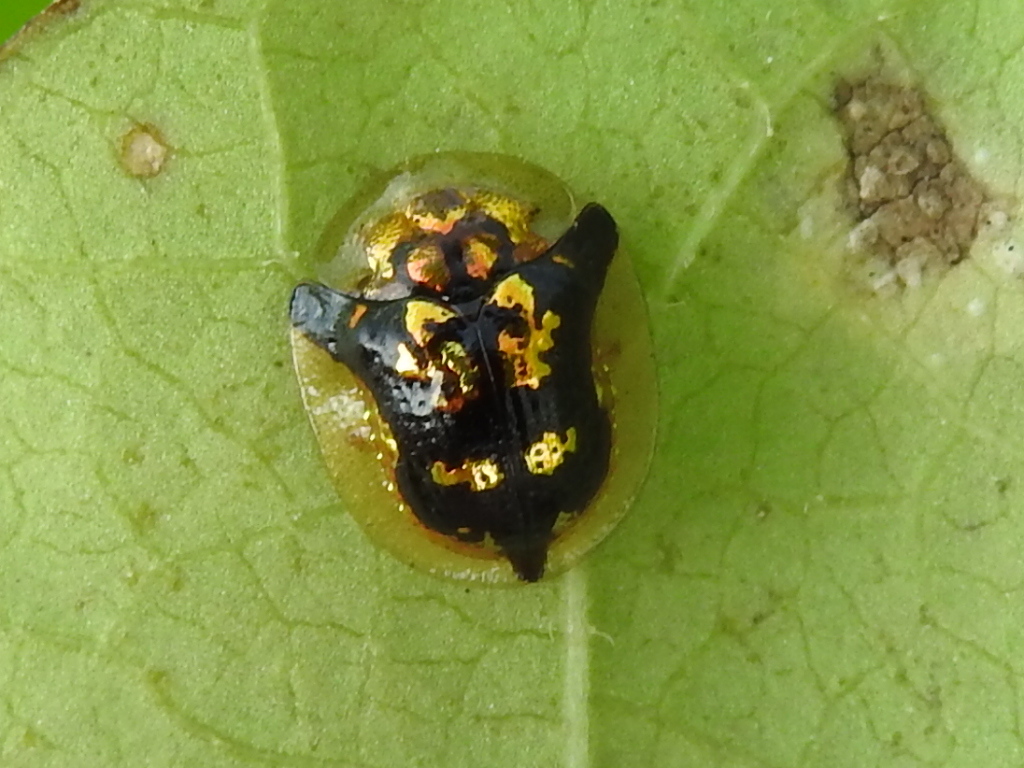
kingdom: Animalia
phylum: Arthropoda
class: Insecta
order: Coleoptera
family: Chrysomelidae
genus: Deloyala
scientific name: Deloyala guttata
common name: Mottled tortoise beetle
